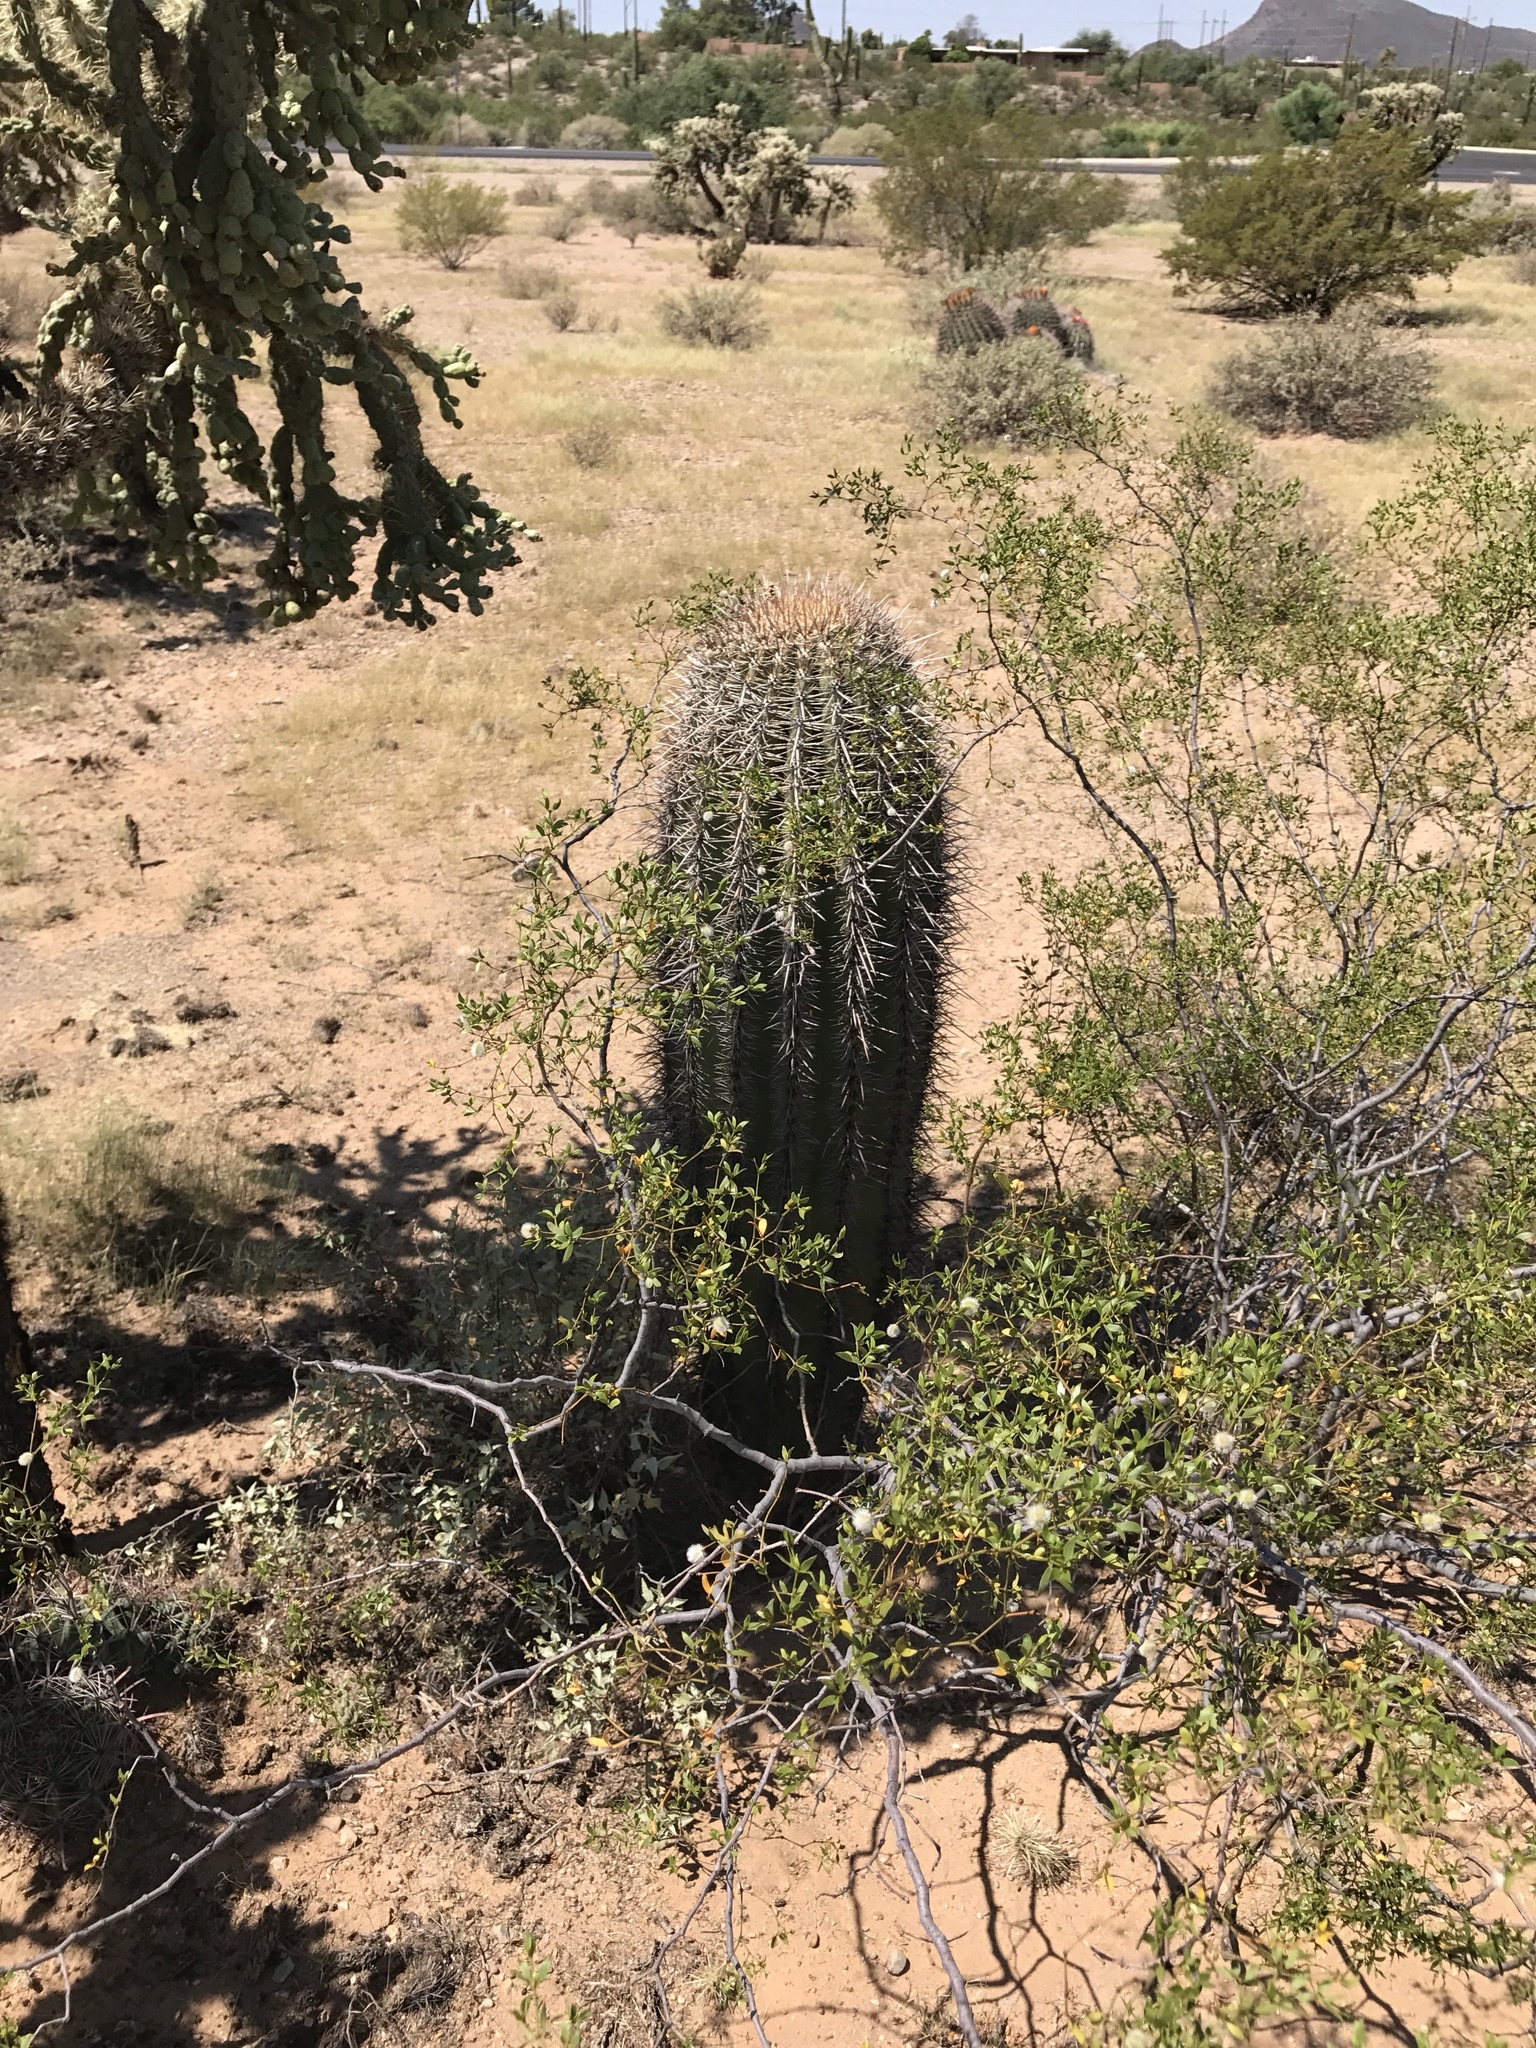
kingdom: Plantae
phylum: Tracheophyta
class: Magnoliopsida
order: Caryophyllales
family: Cactaceae
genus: Carnegiea
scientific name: Carnegiea gigantea
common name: Saguaro
